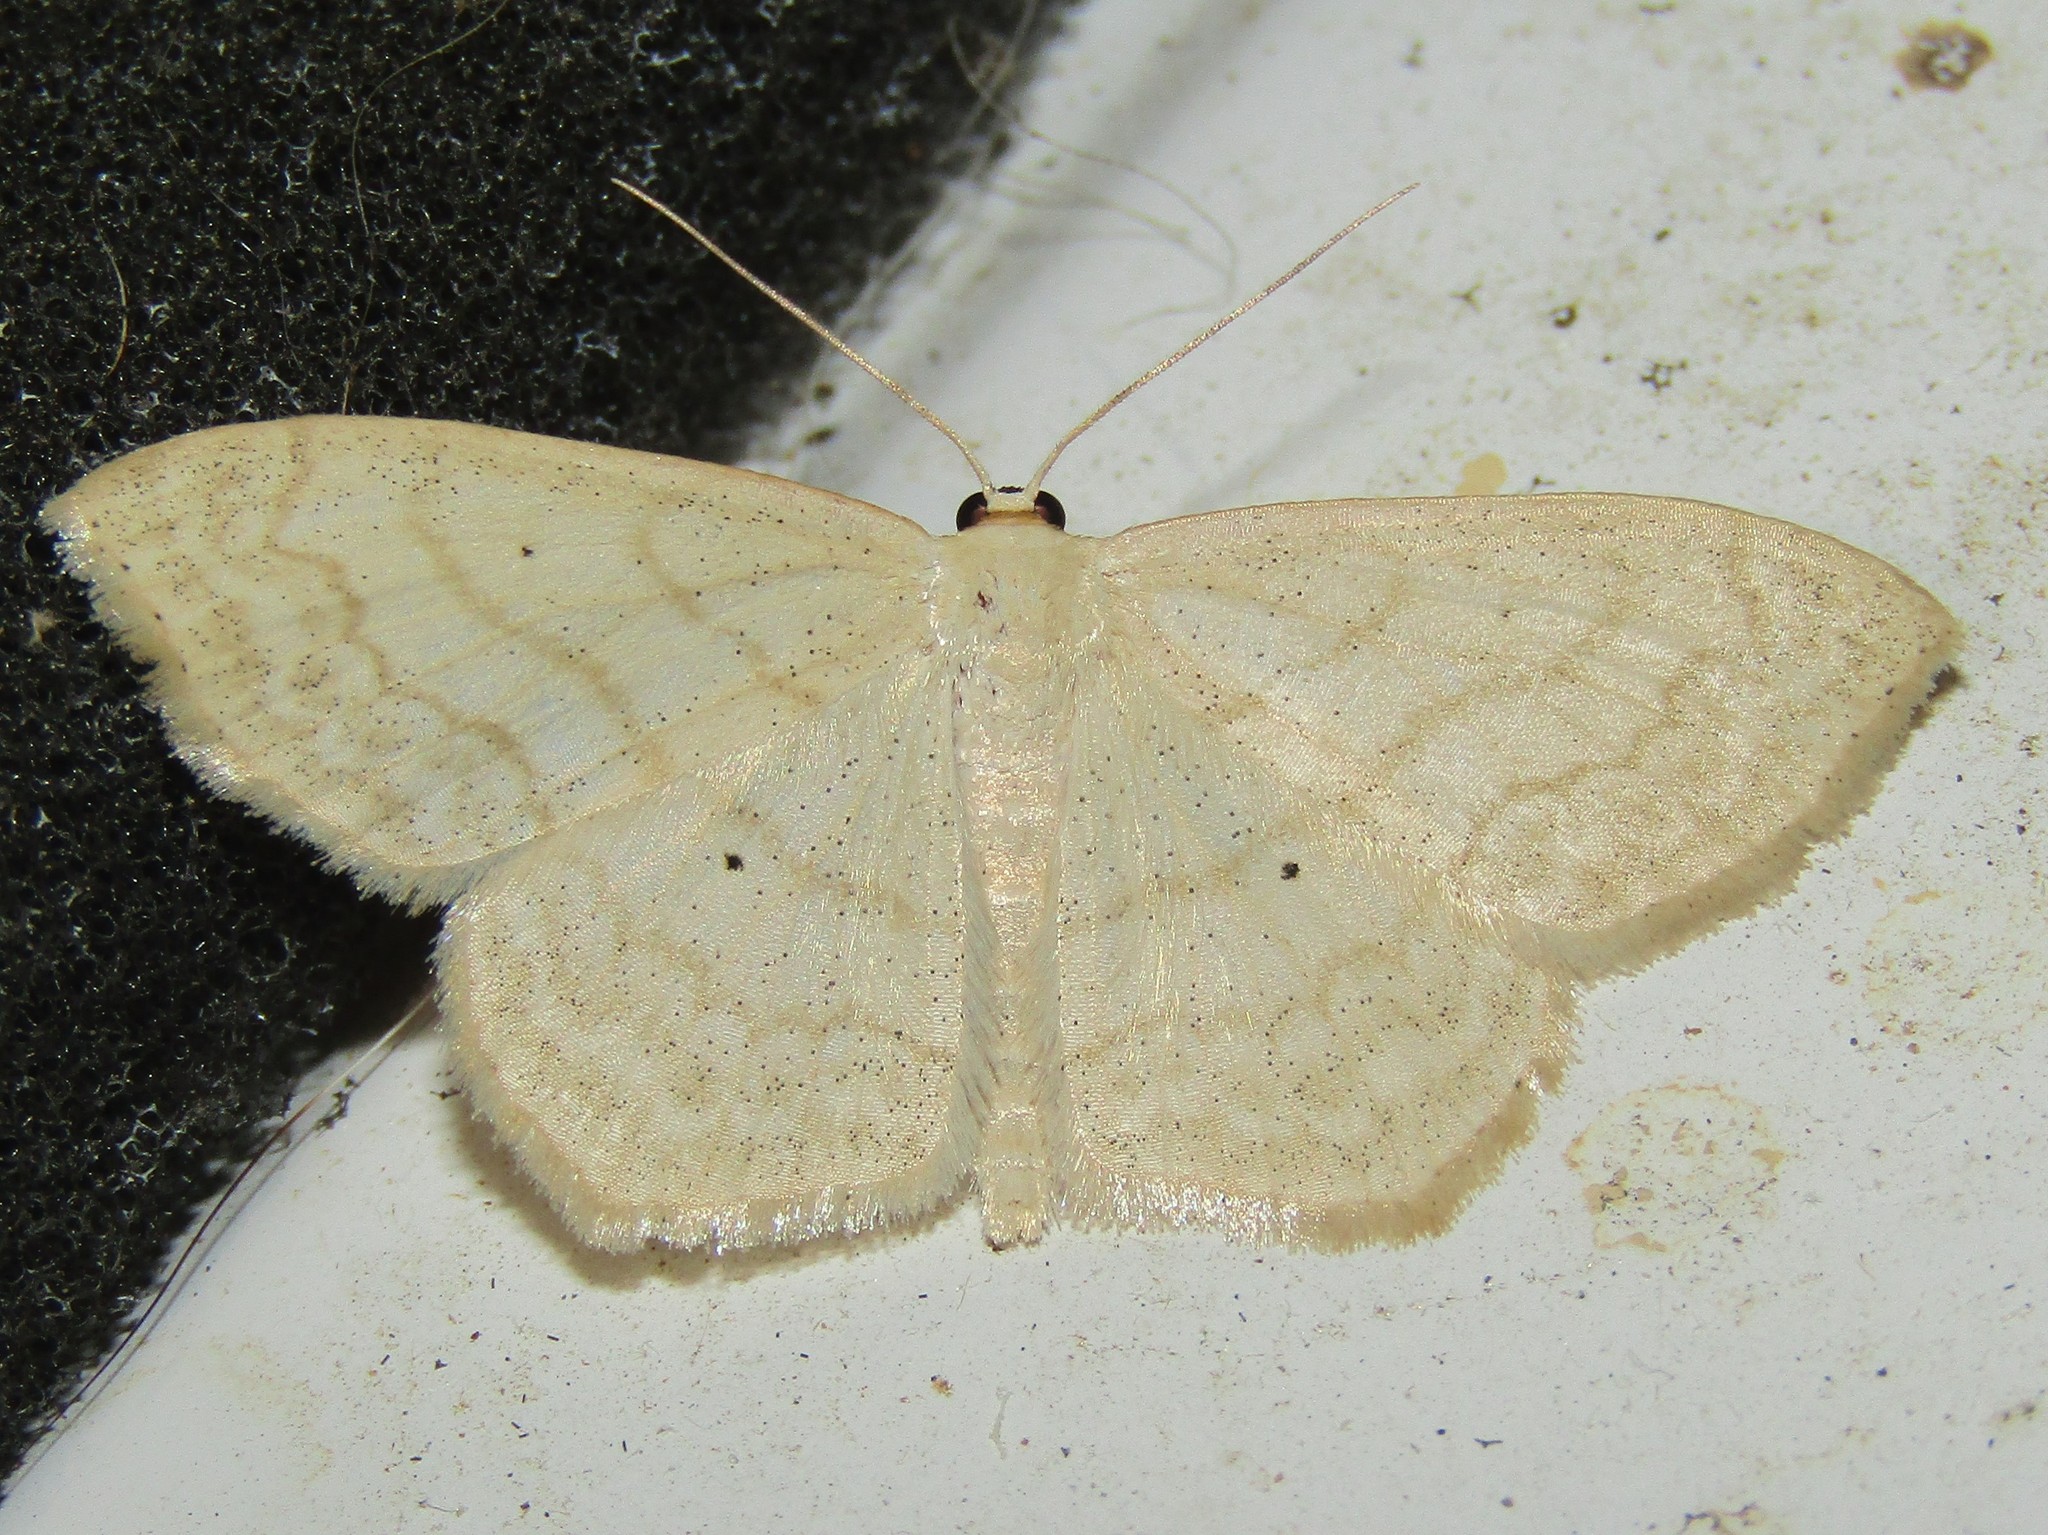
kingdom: Animalia
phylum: Arthropoda
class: Insecta
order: Lepidoptera
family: Geometridae
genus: Scopula
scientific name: Scopula limboundata
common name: Large lace border
